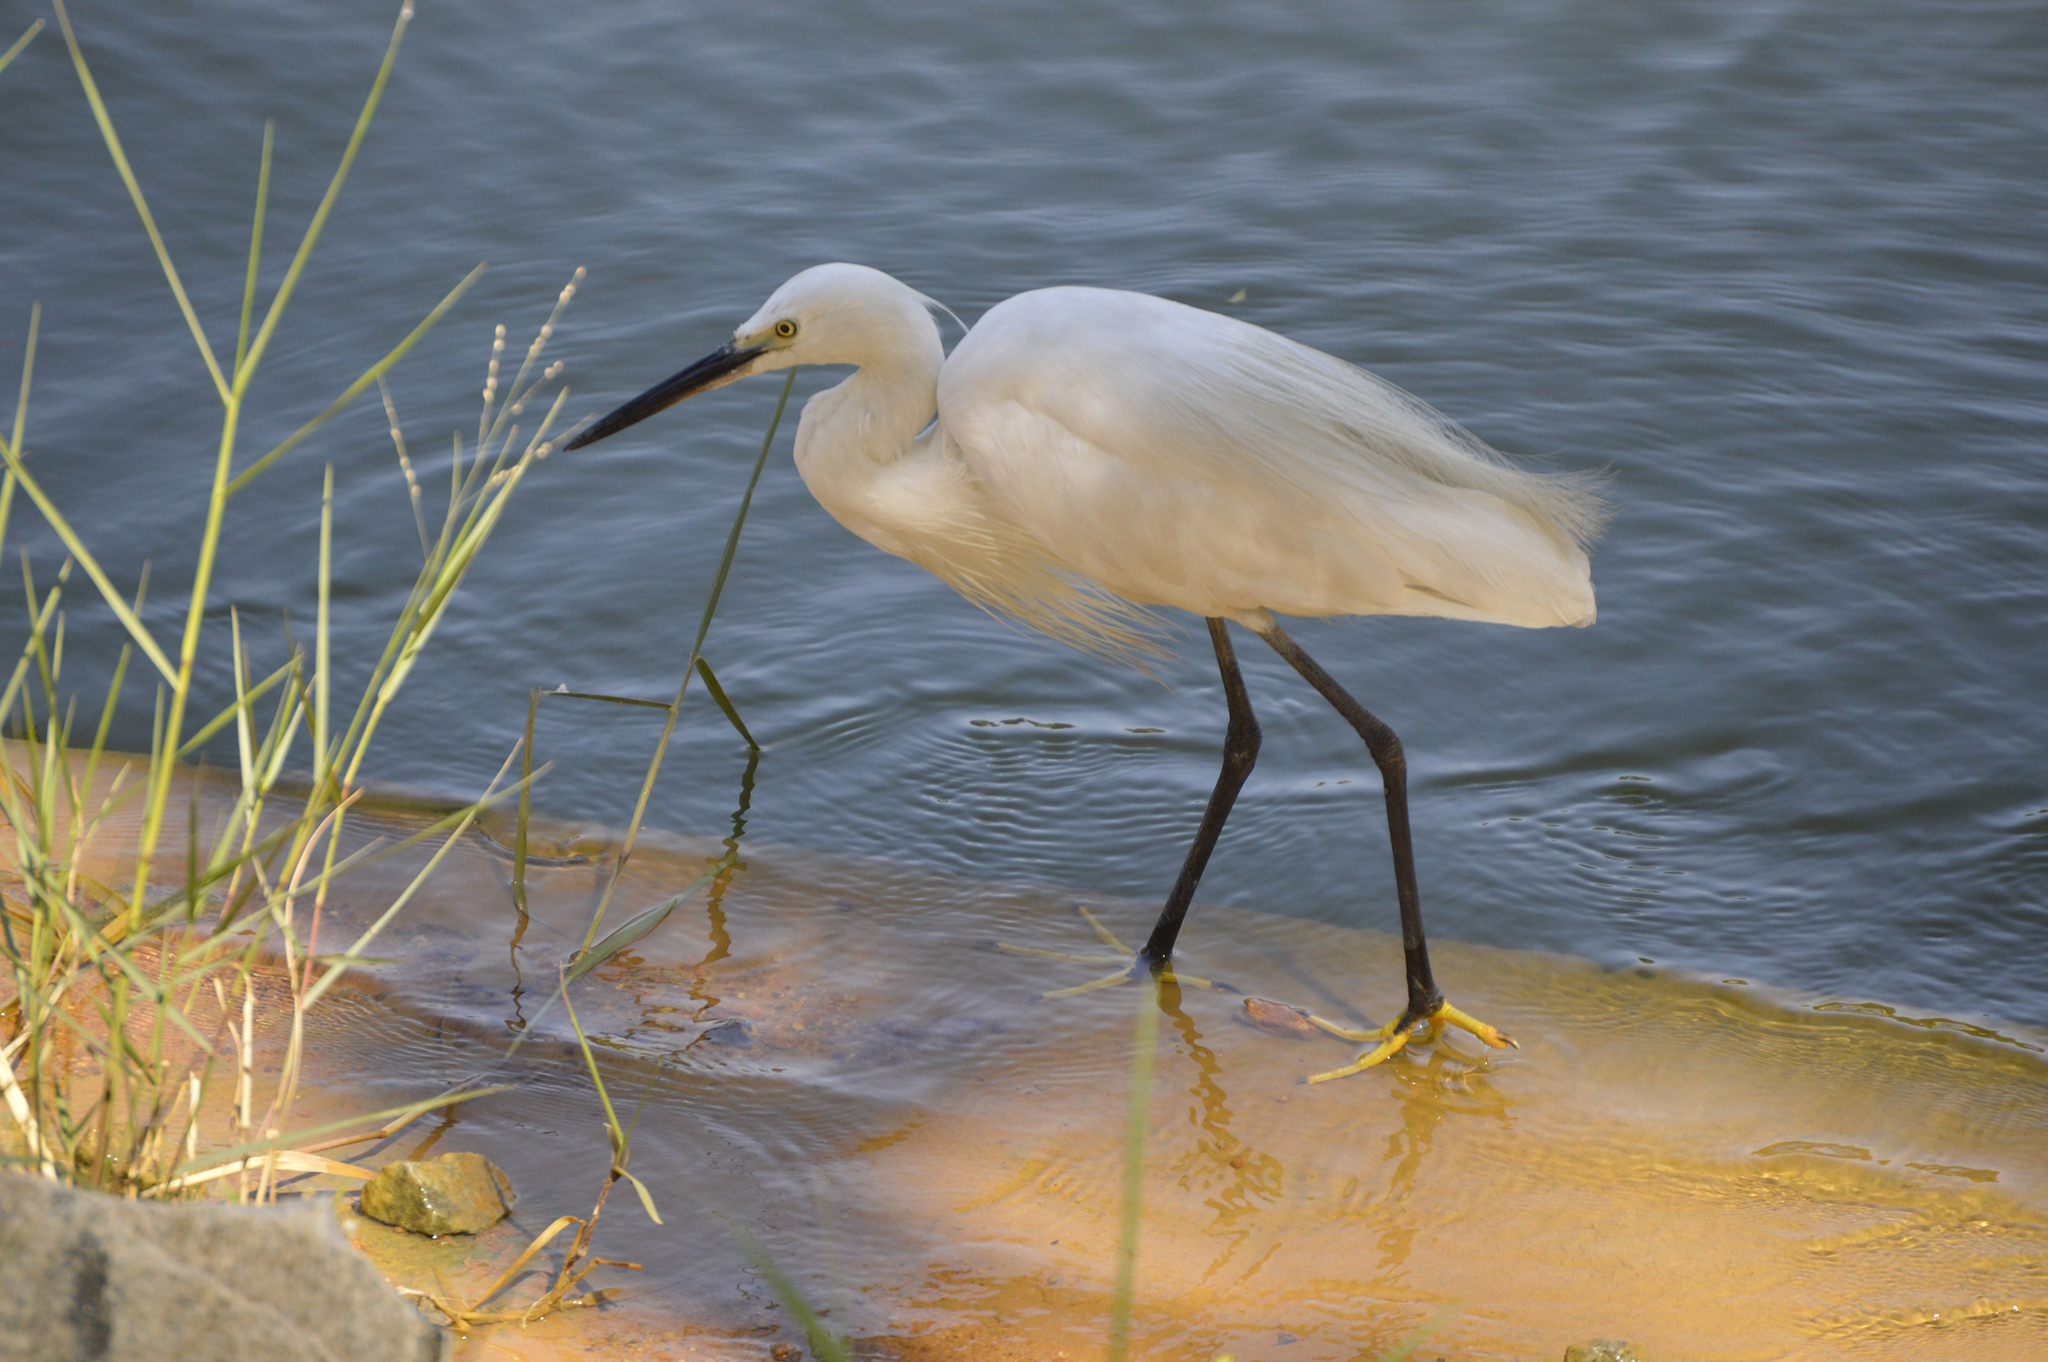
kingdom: Animalia
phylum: Chordata
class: Aves
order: Pelecaniformes
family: Ardeidae
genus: Egretta
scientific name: Egretta garzetta
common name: Little egret
